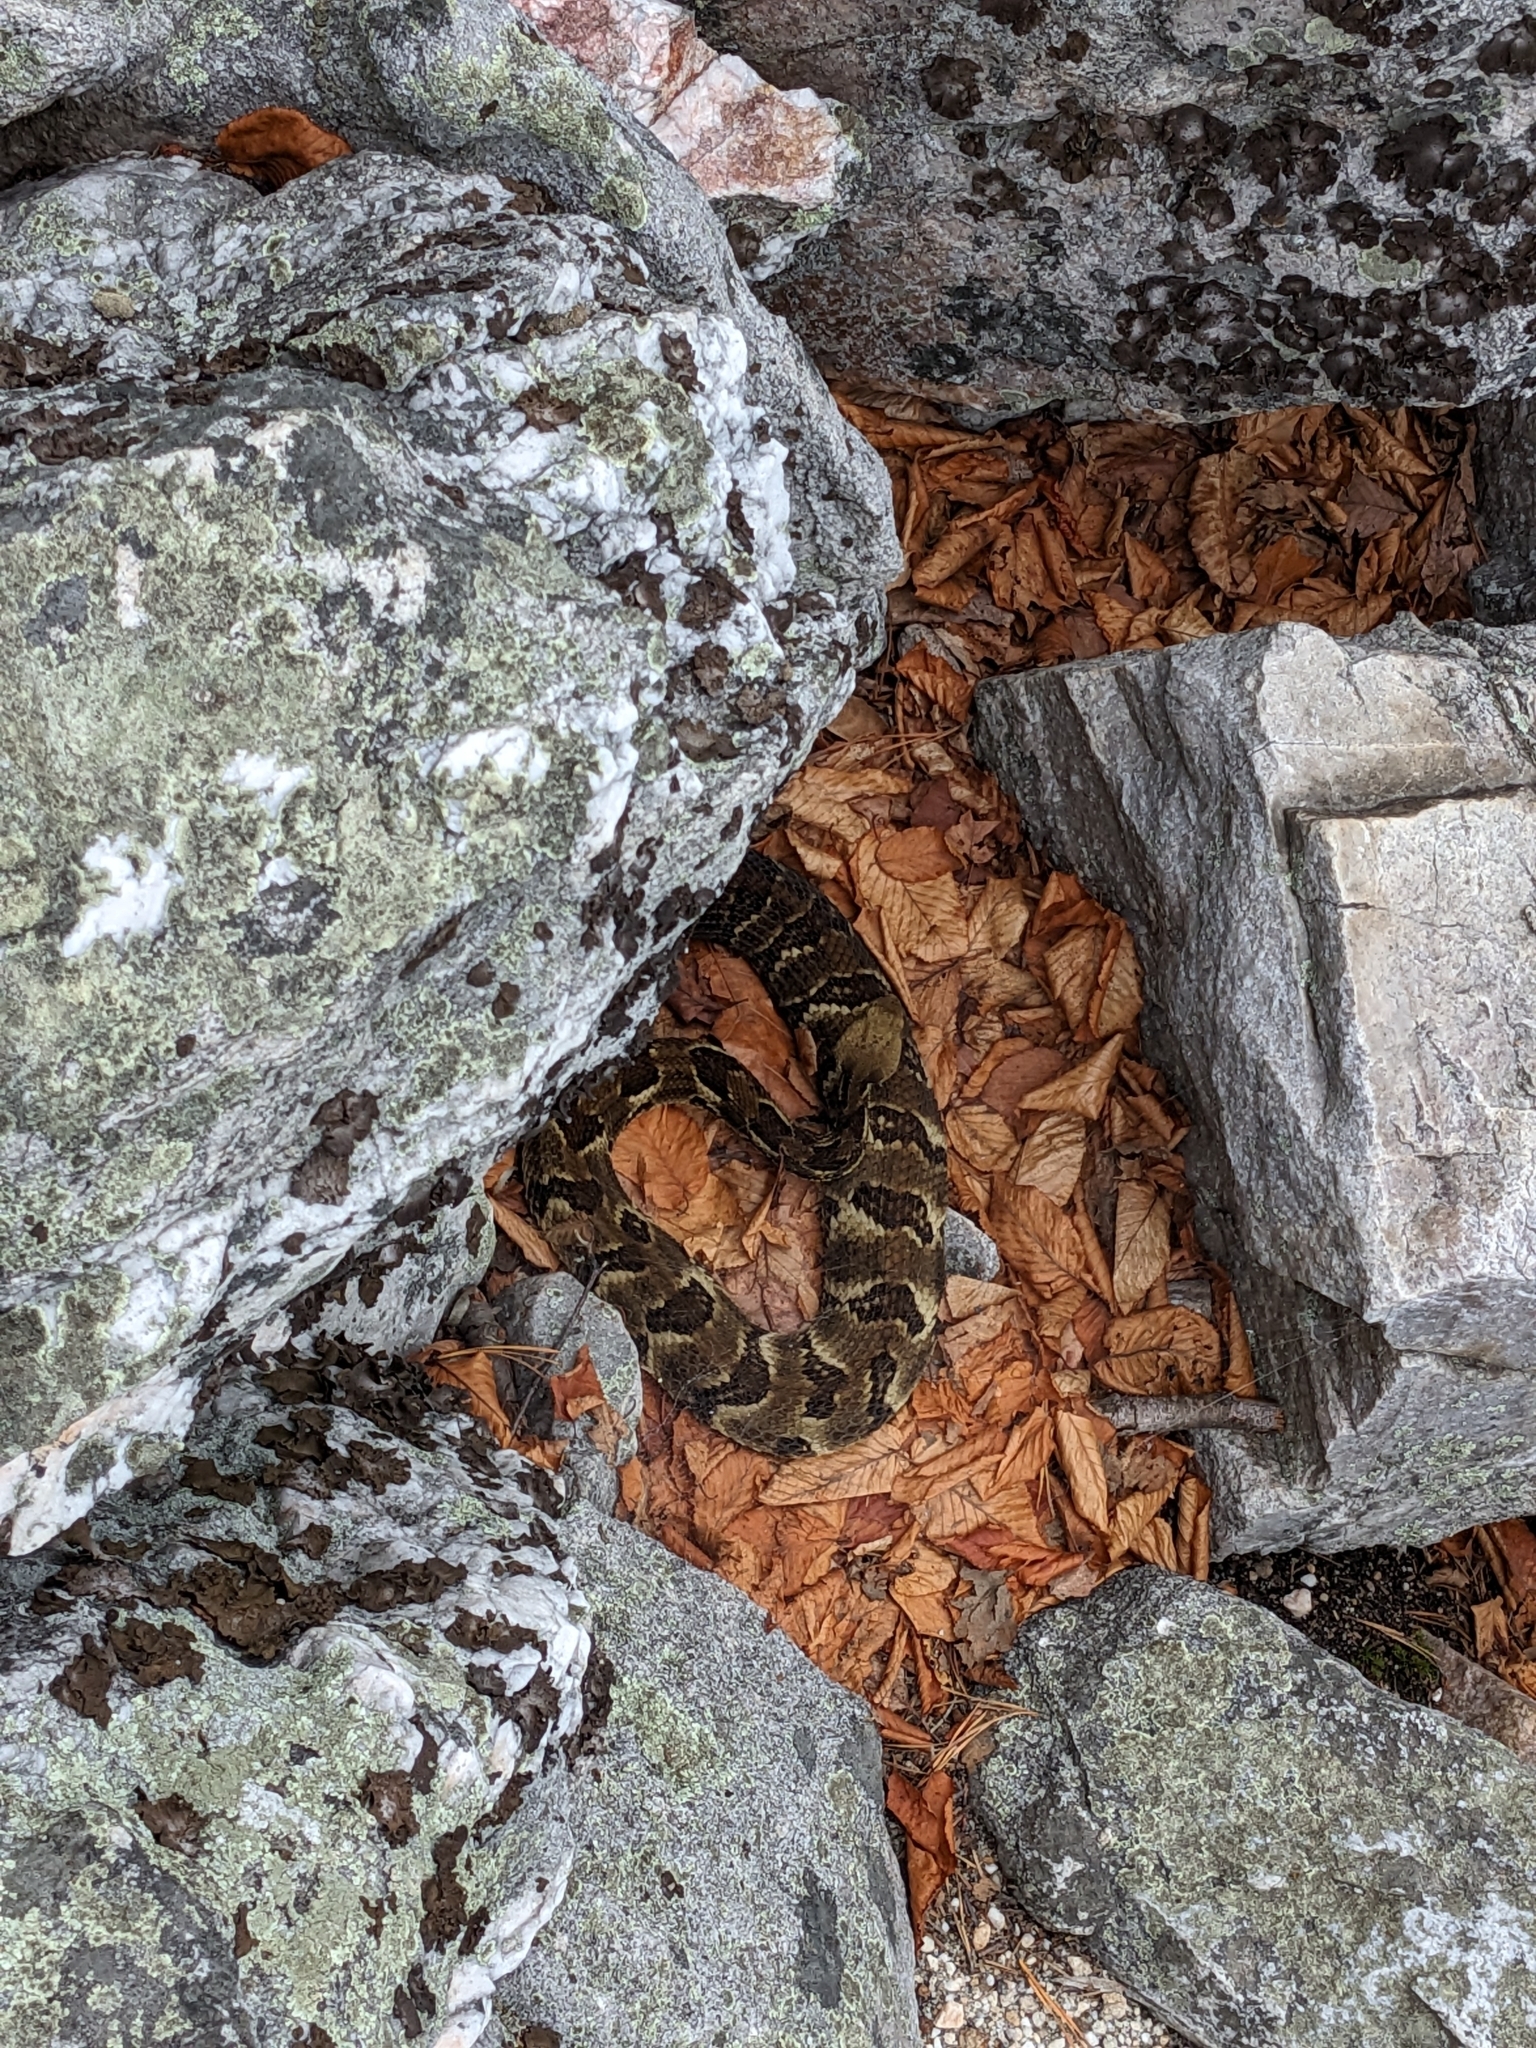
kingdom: Animalia
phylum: Chordata
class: Squamata
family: Viperidae
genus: Crotalus
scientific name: Crotalus horridus
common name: Timber rattlesnake
